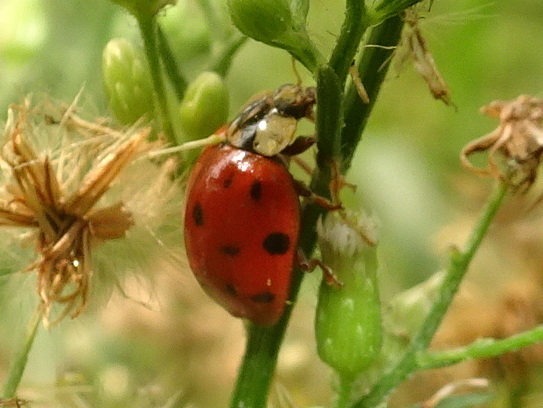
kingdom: Animalia
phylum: Arthropoda
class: Insecta
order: Coleoptera
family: Coccinellidae
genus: Harmonia
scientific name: Harmonia axyridis
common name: Harlequin ladybird
